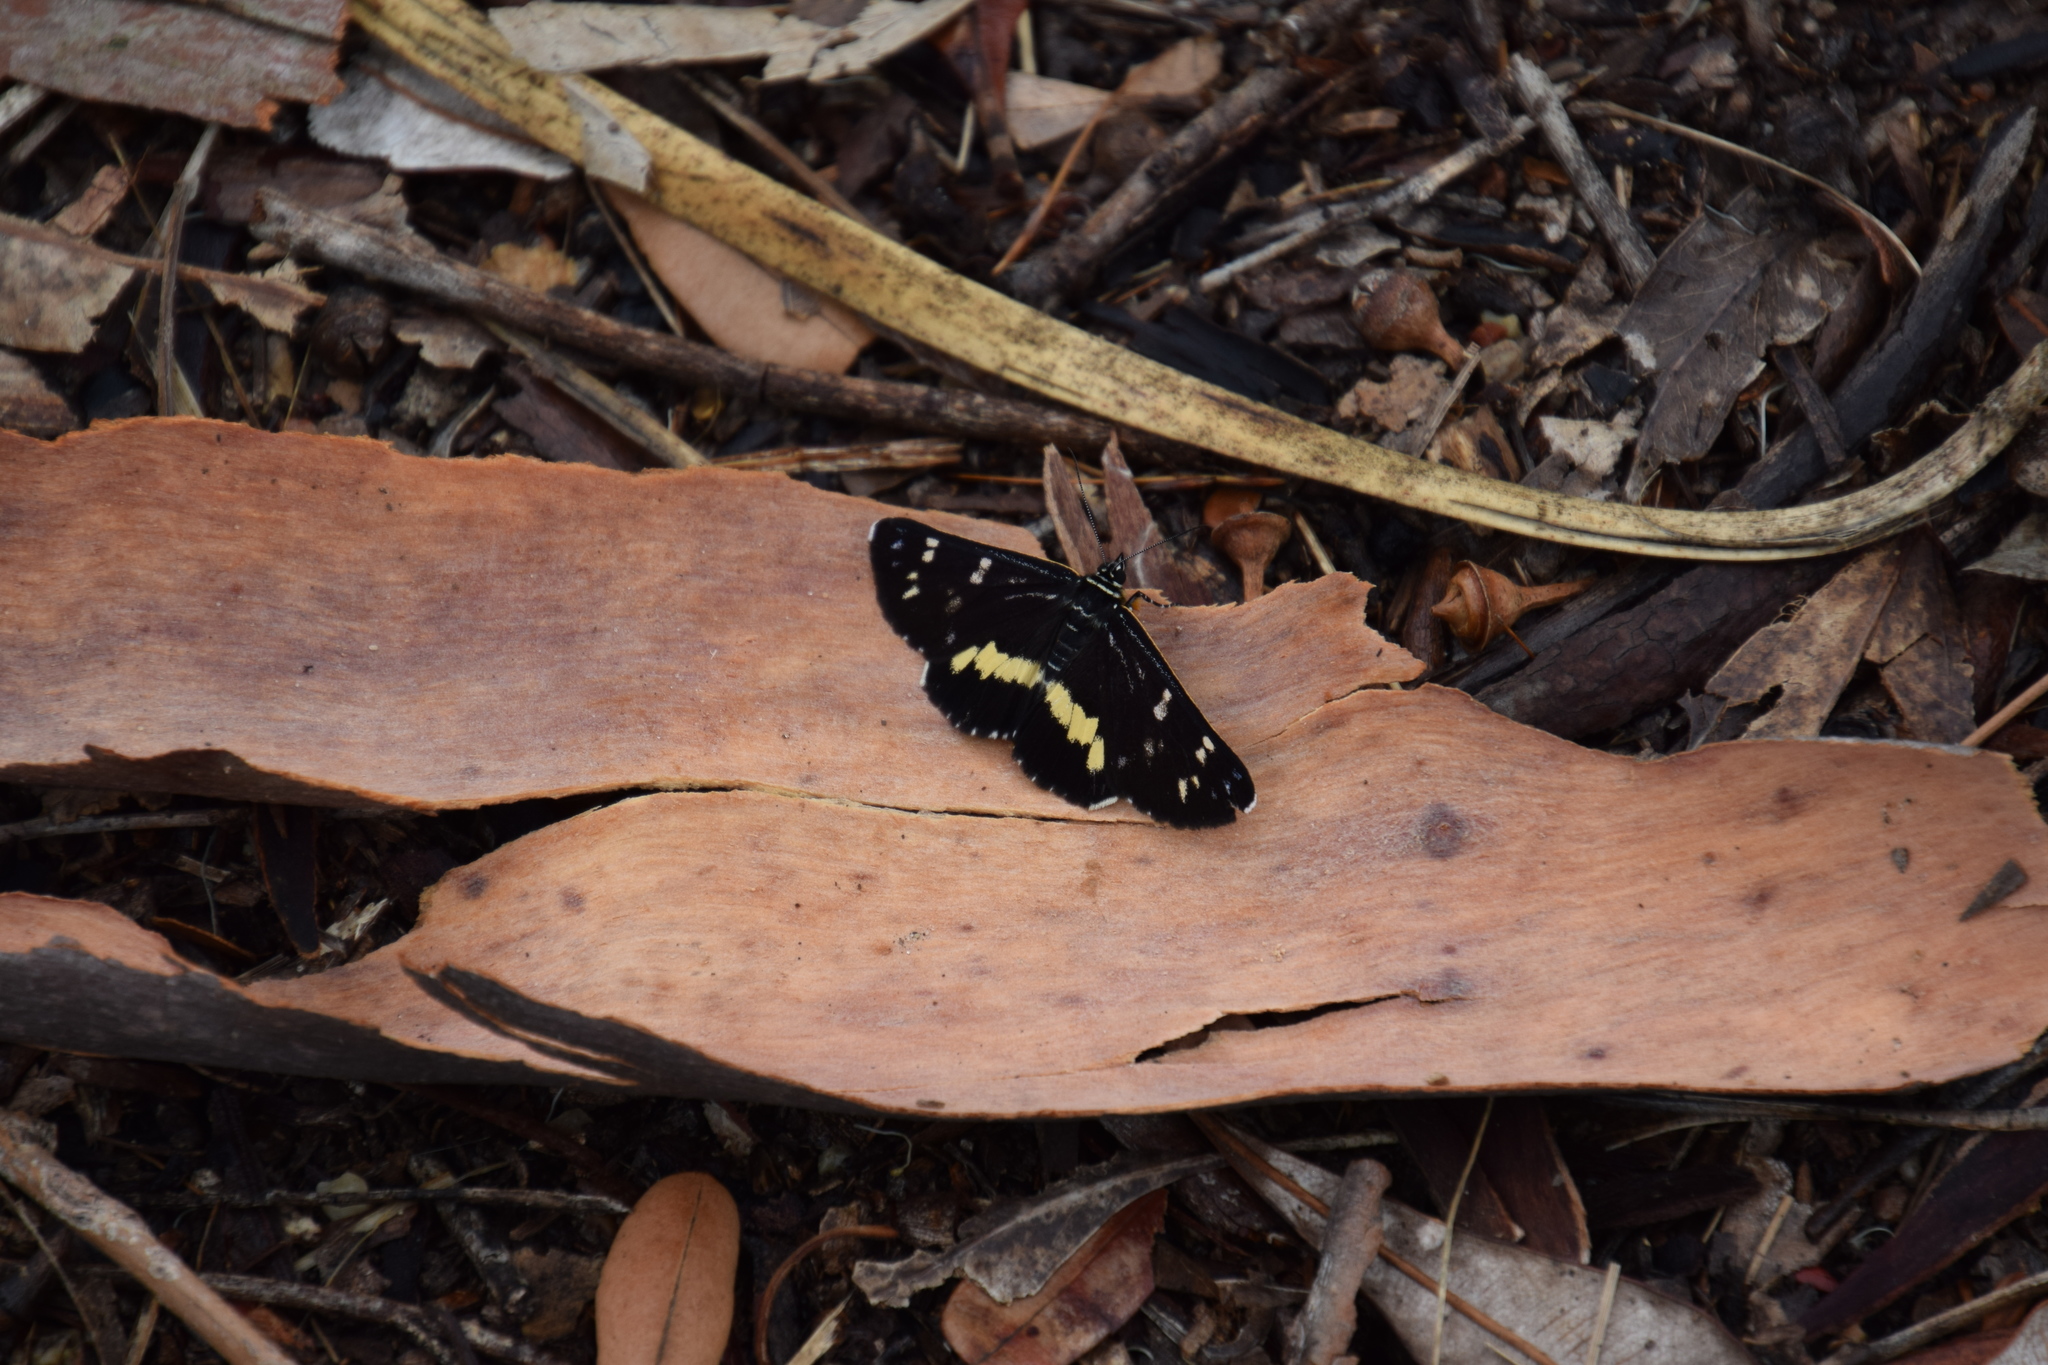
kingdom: Animalia
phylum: Arthropoda
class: Insecta
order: Lepidoptera
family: Noctuidae
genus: Cruria
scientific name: Cruria synopla
